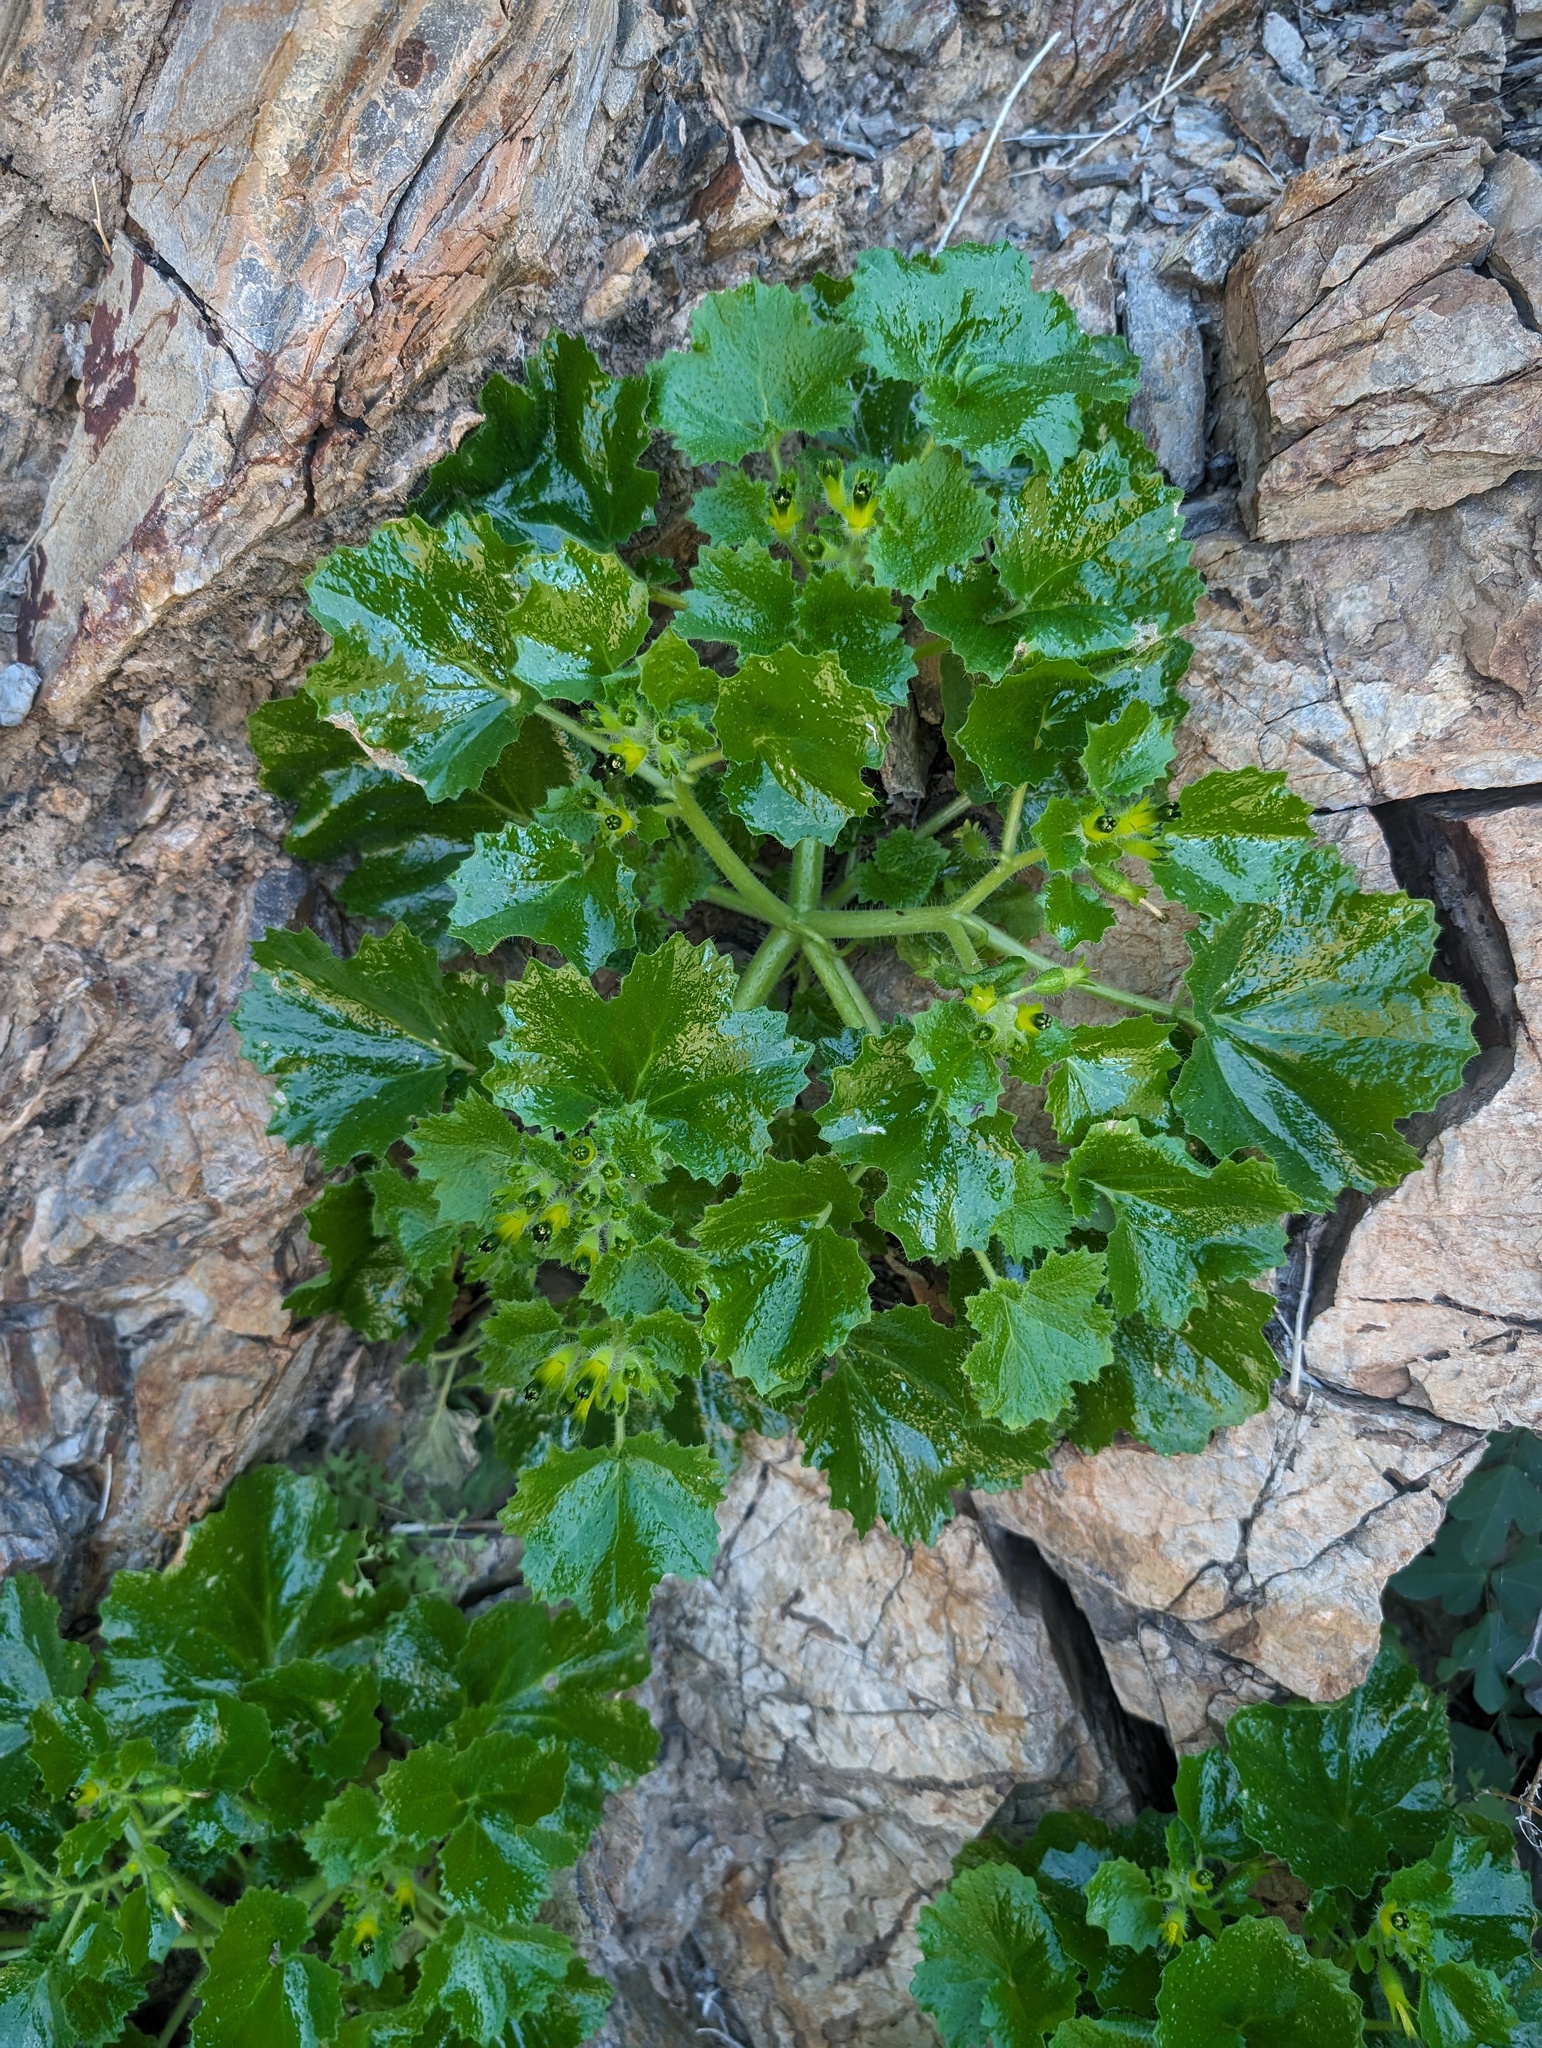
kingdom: Plantae
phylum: Tracheophyta
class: Magnoliopsida
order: Cornales
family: Loasaceae
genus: Eucnide
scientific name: Eucnide rupestris
